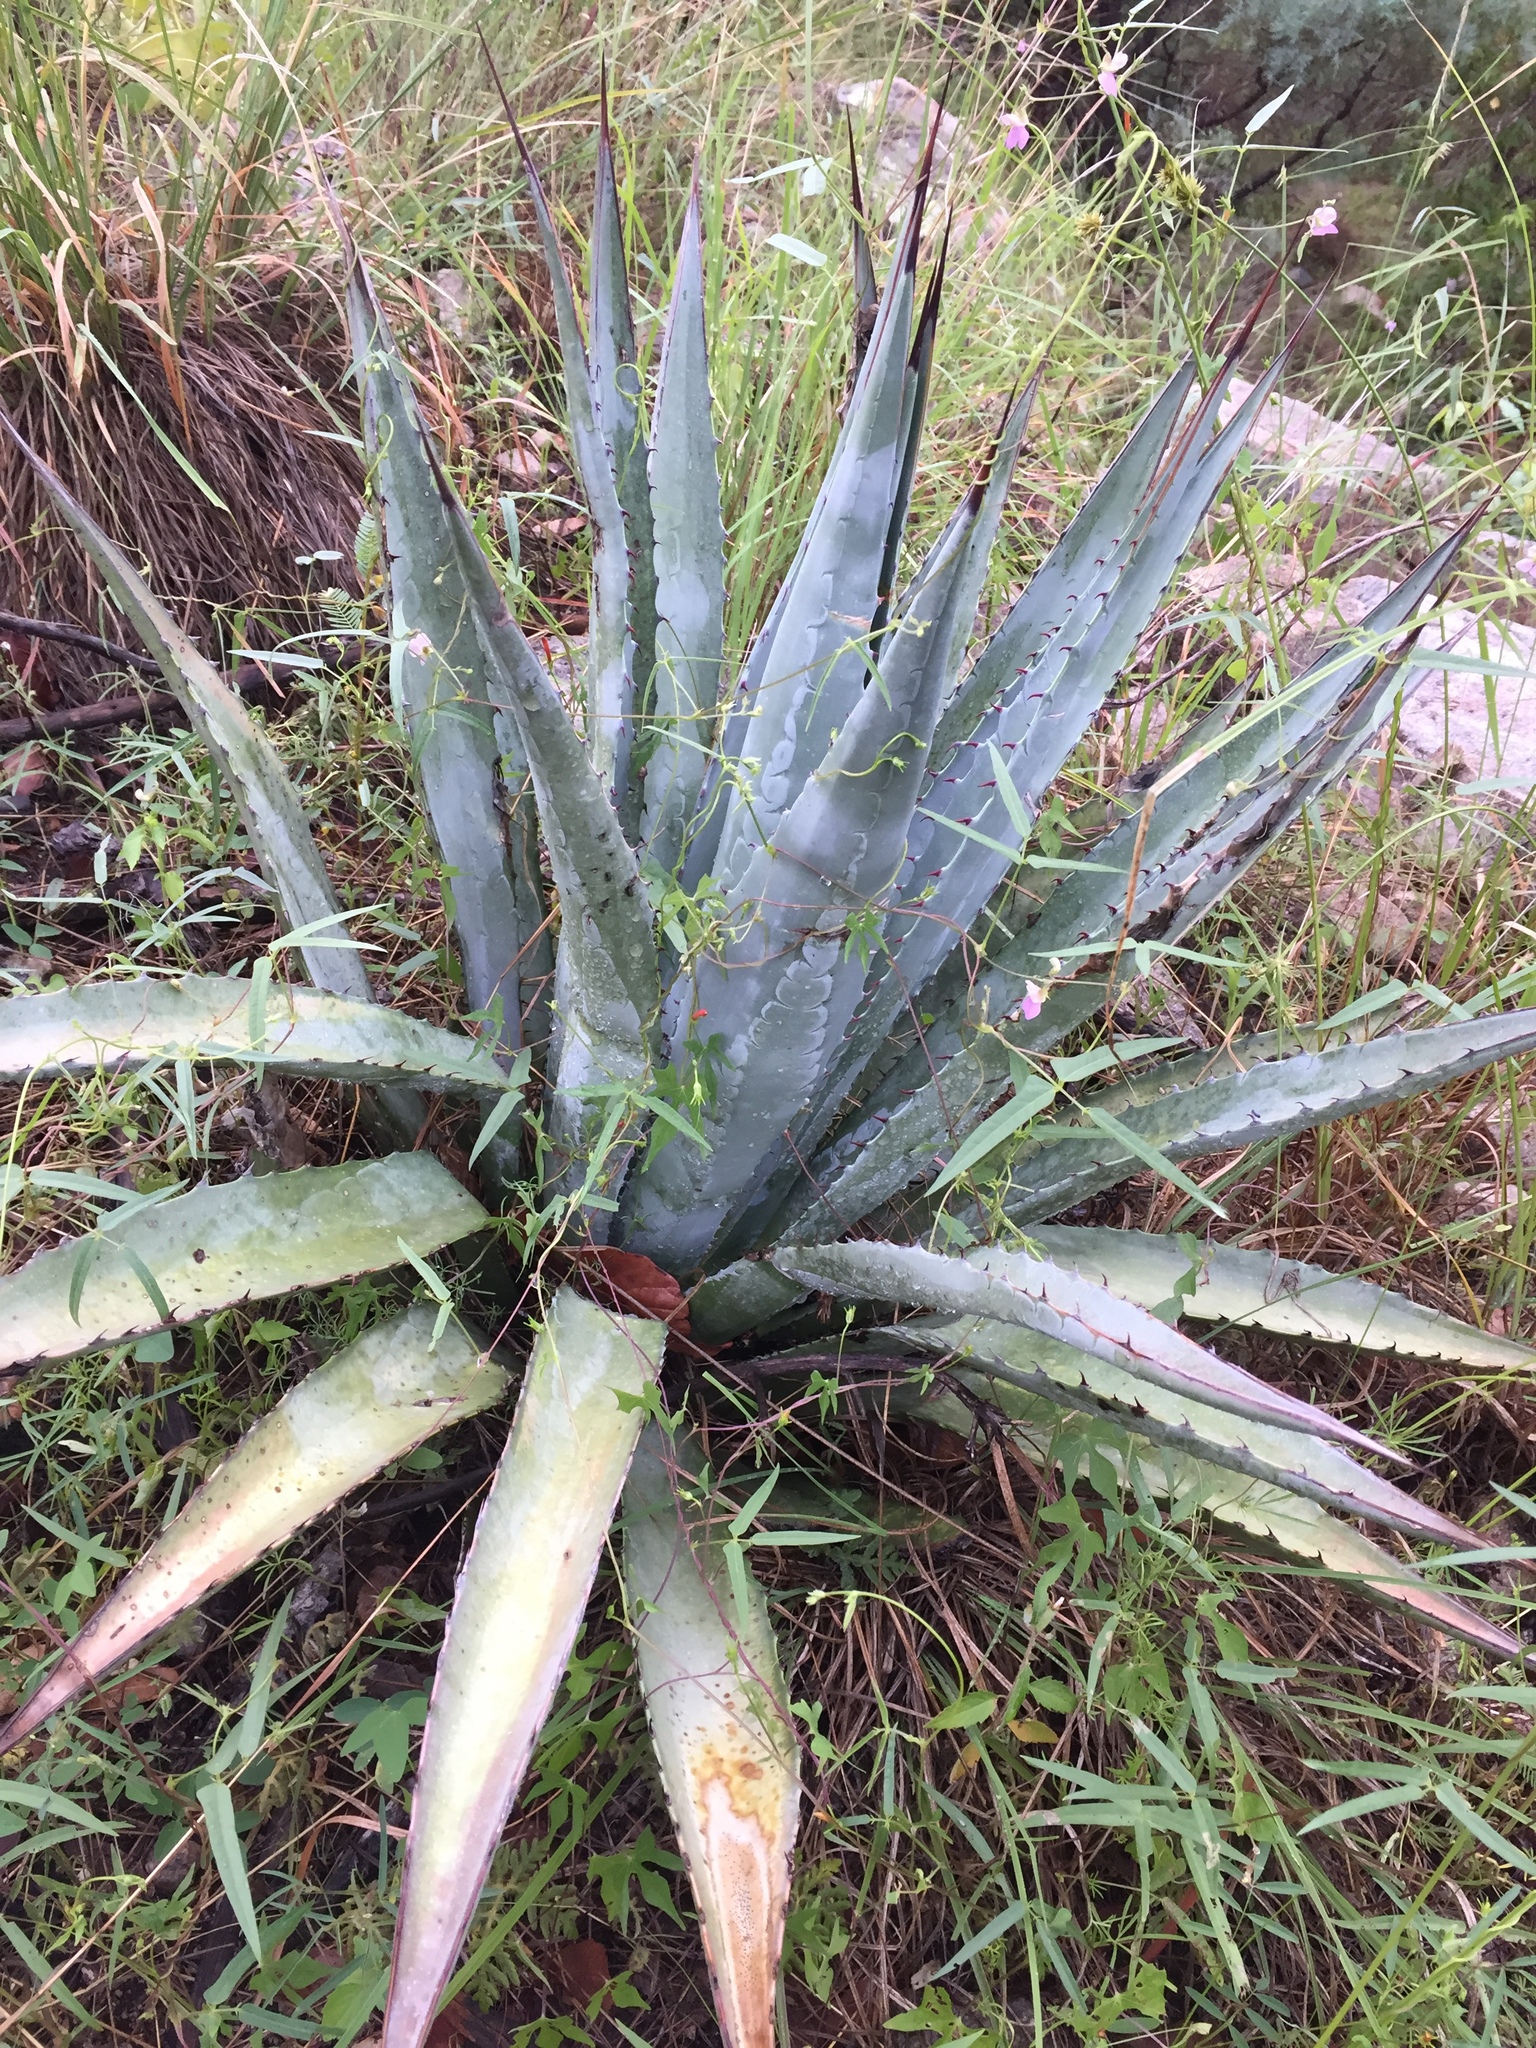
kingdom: Plantae
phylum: Tracheophyta
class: Liliopsida
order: Asparagales
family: Asparagaceae
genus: Agave
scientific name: Agave palmeri
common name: Palmer agave
